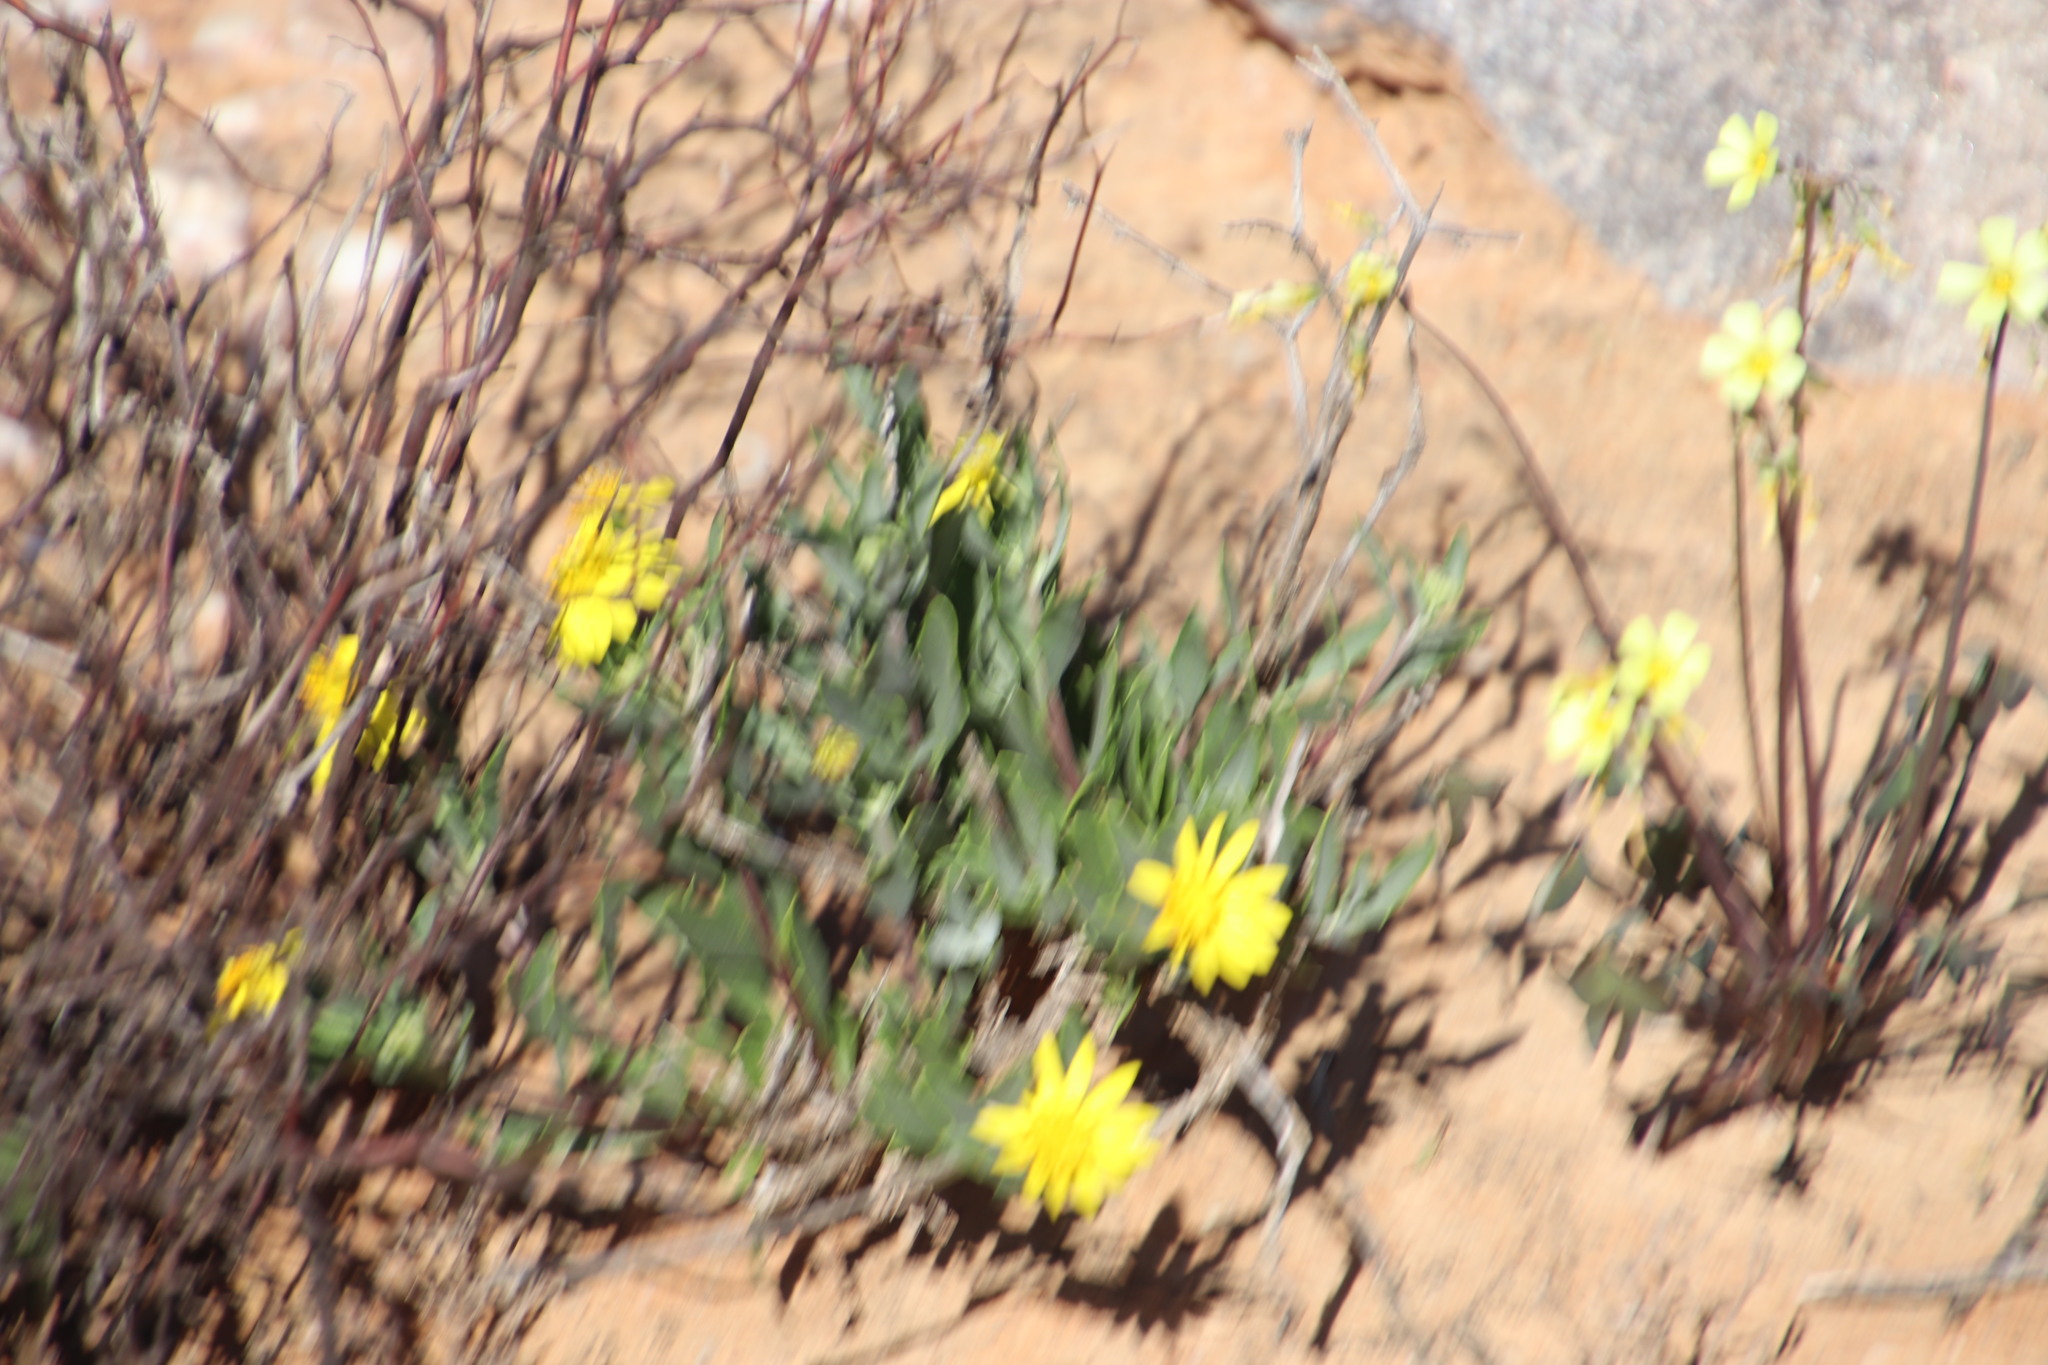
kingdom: Plantae
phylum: Tracheophyta
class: Magnoliopsida
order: Asterales
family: Asteraceae
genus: Osteospermum
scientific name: Osteospermum sinuatum
